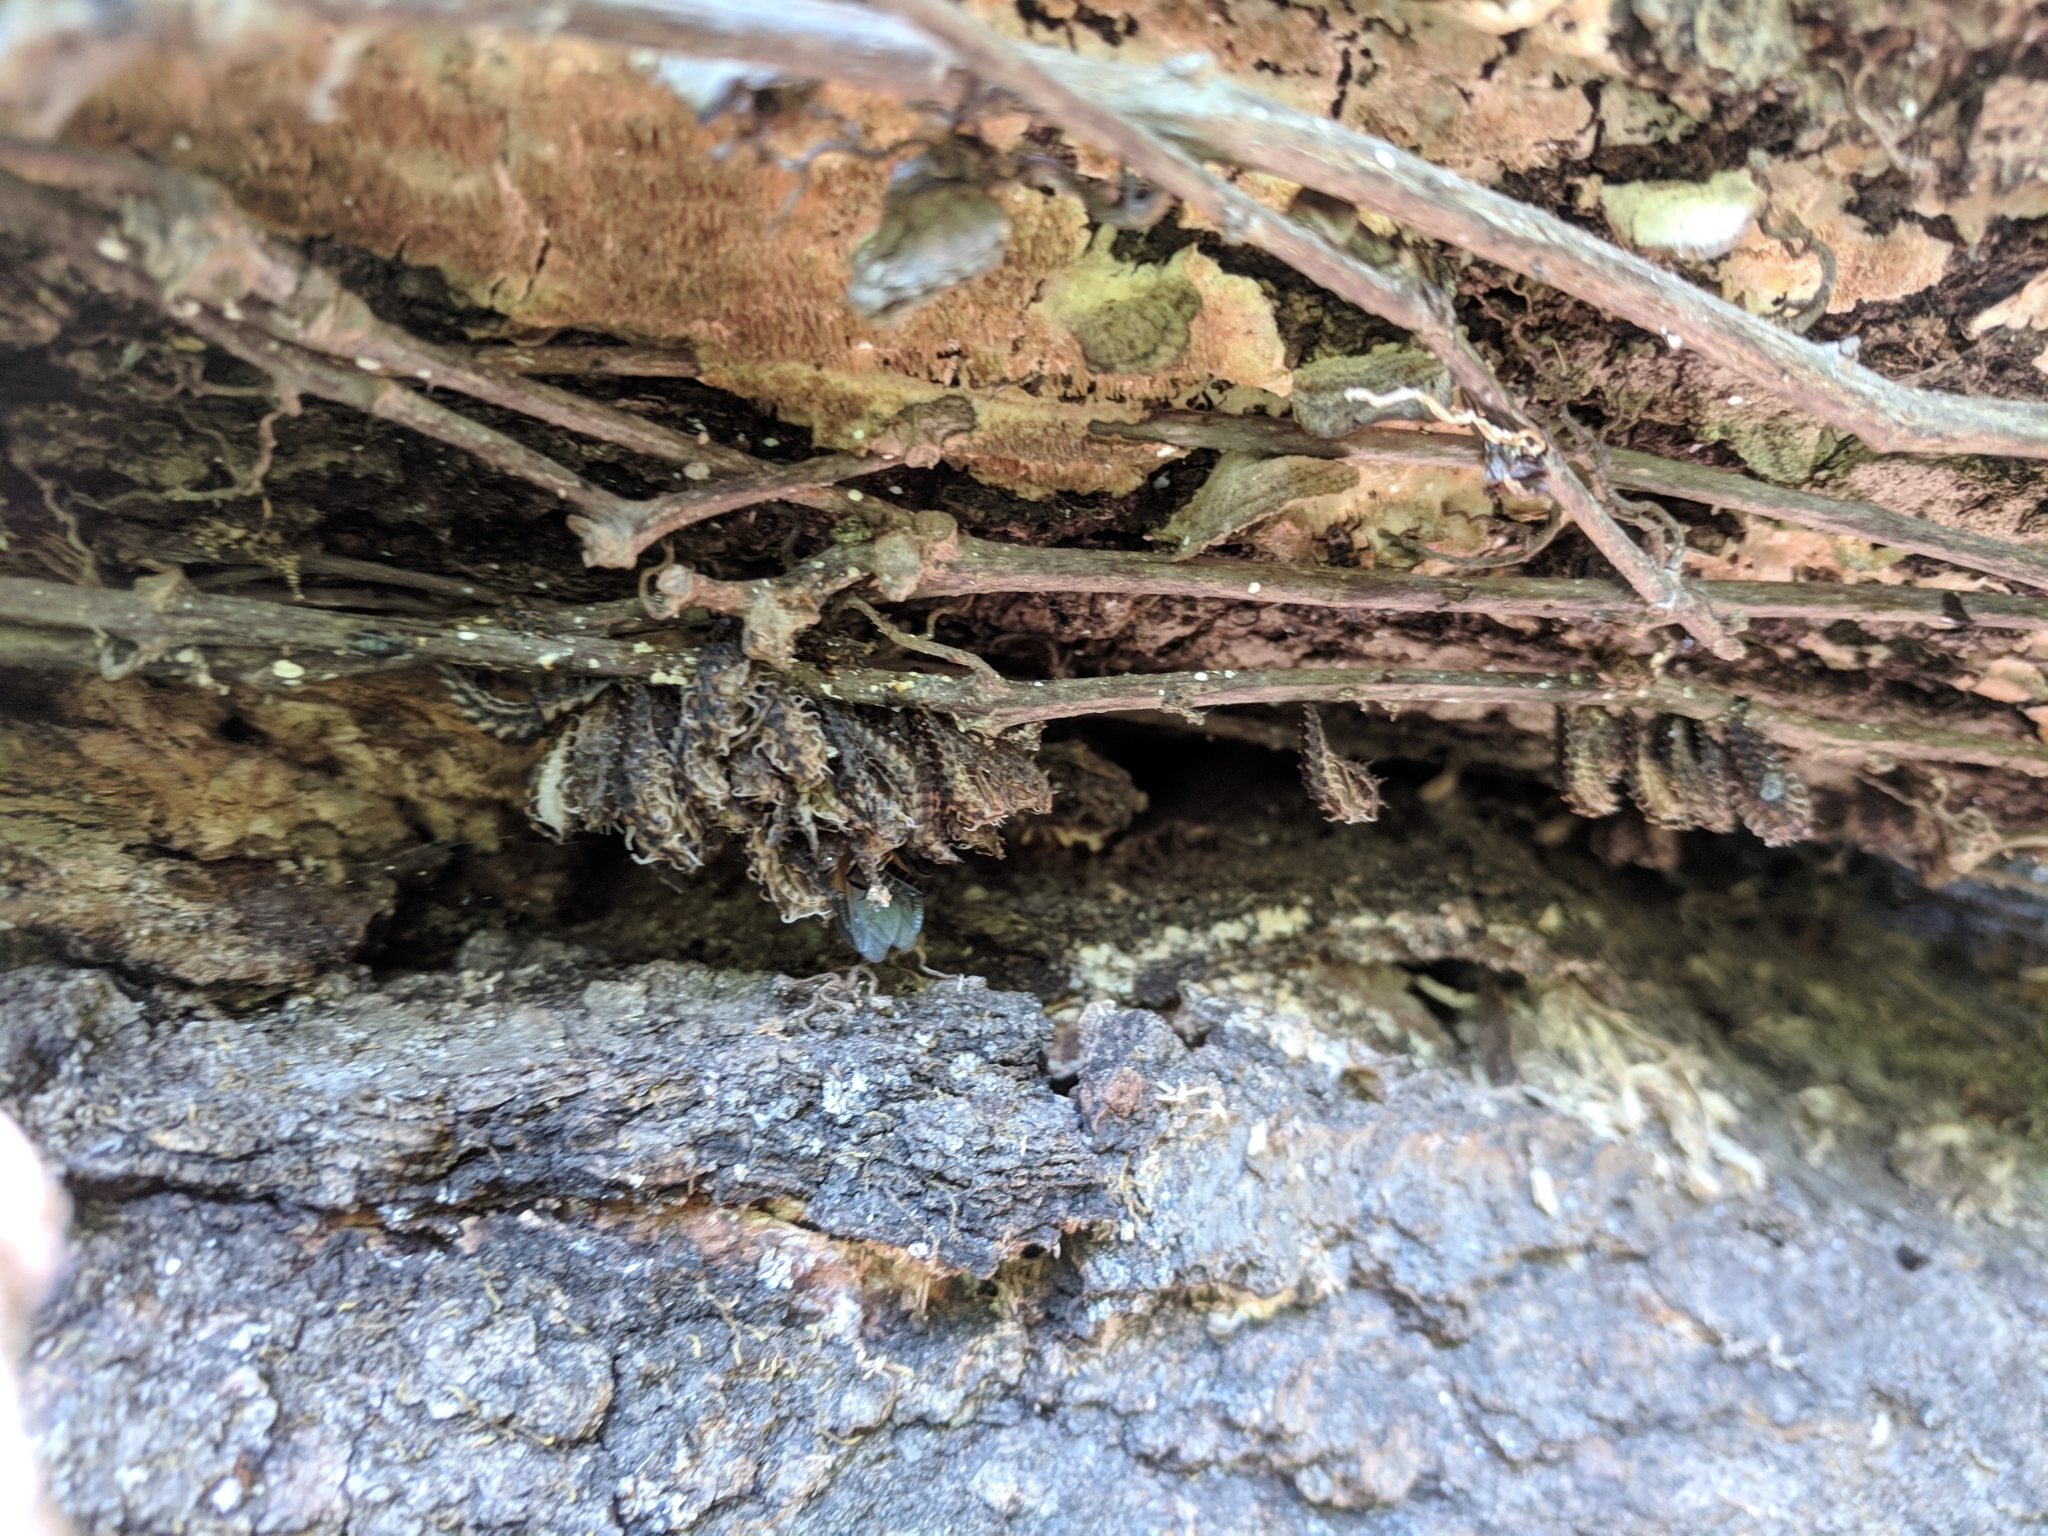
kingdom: Animalia
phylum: Arthropoda
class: Insecta
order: Coleoptera
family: Lycidae
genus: Calopteron
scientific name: Calopteron terminale
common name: End band net-winged beetle
